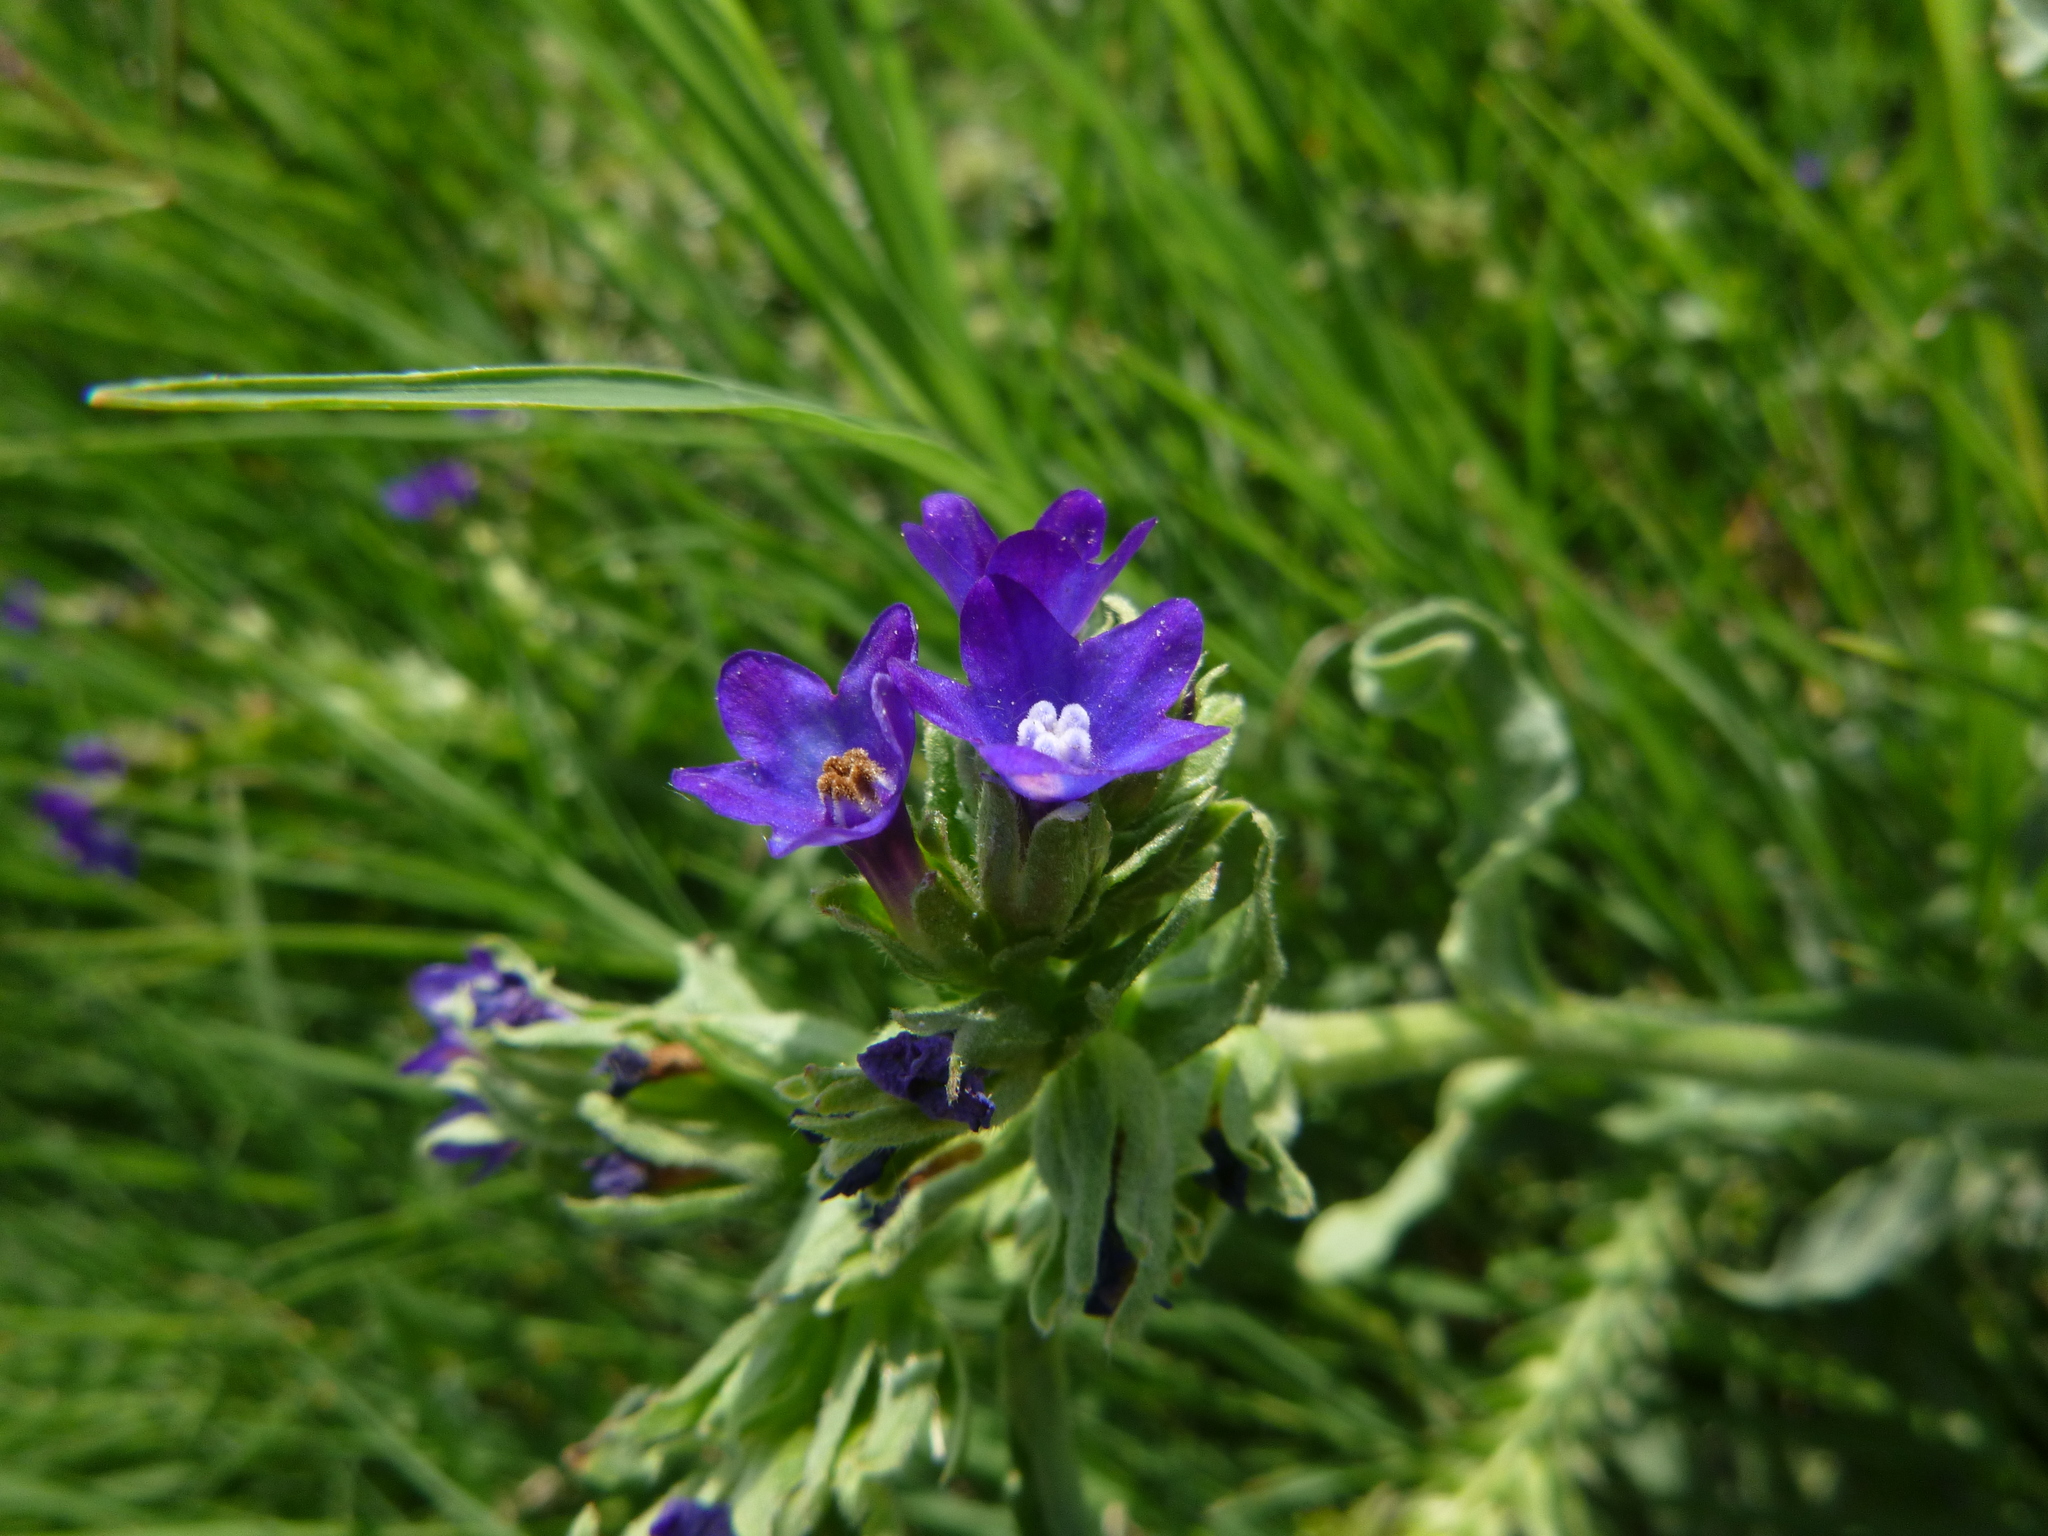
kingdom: Plantae
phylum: Tracheophyta
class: Magnoliopsida
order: Boraginales
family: Boraginaceae
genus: Anchusa
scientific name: Anchusa officinalis
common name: Alkanet
